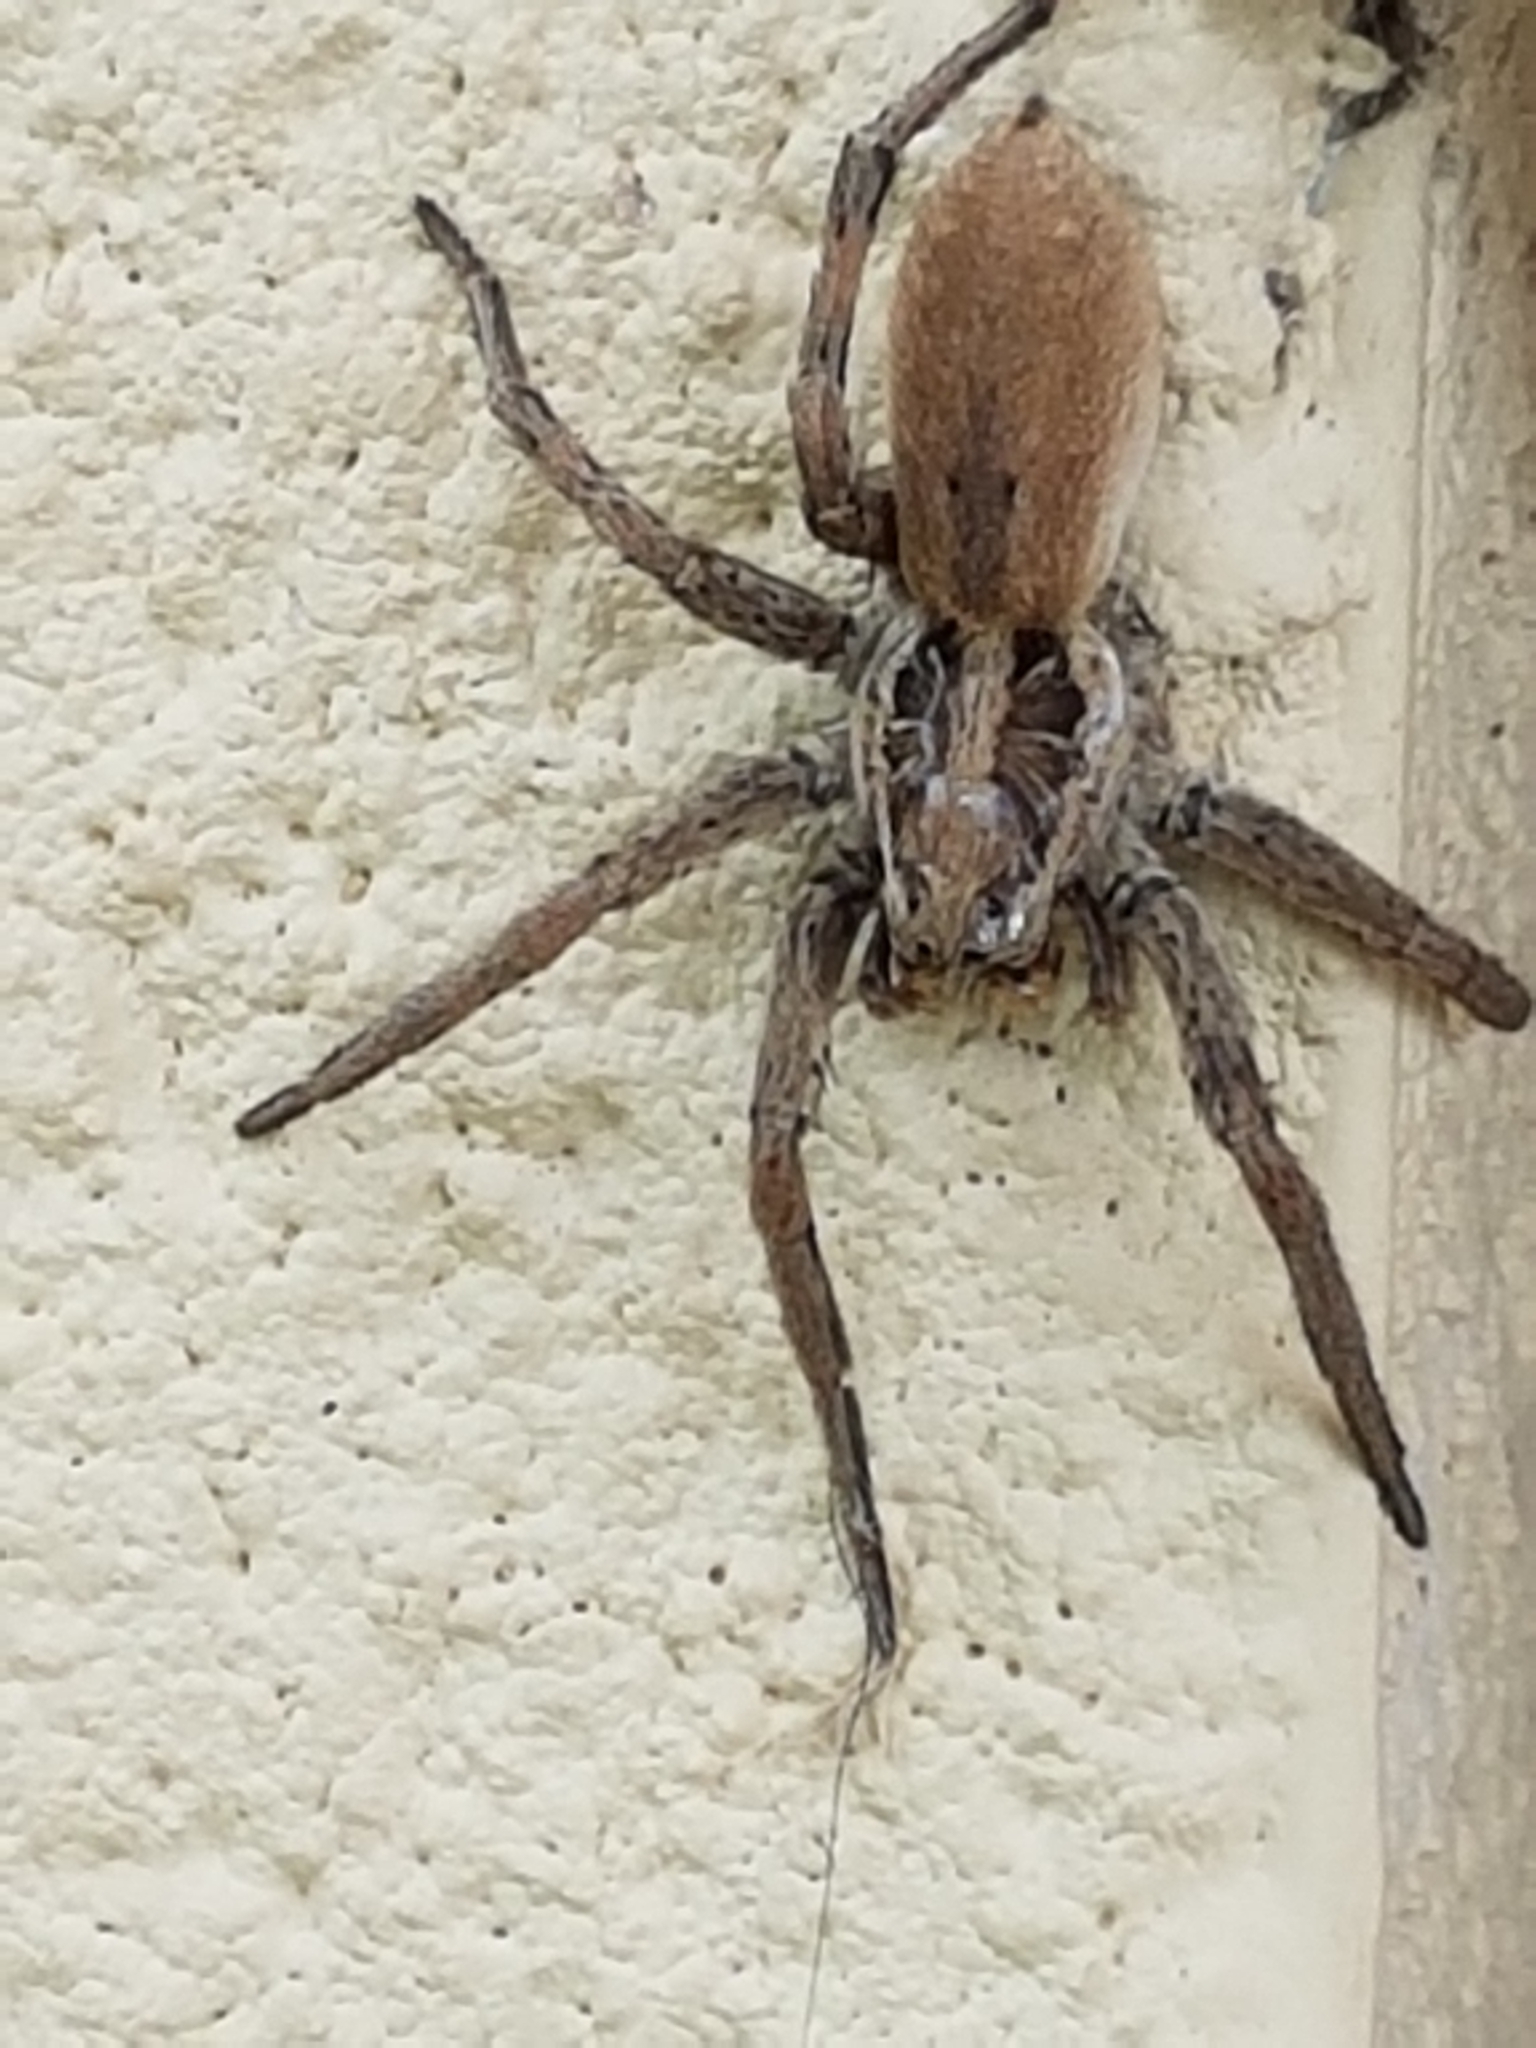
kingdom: Animalia
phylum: Arthropoda
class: Arachnida
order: Araneae
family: Lycosidae
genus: Hogna
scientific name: Hogna radiata
